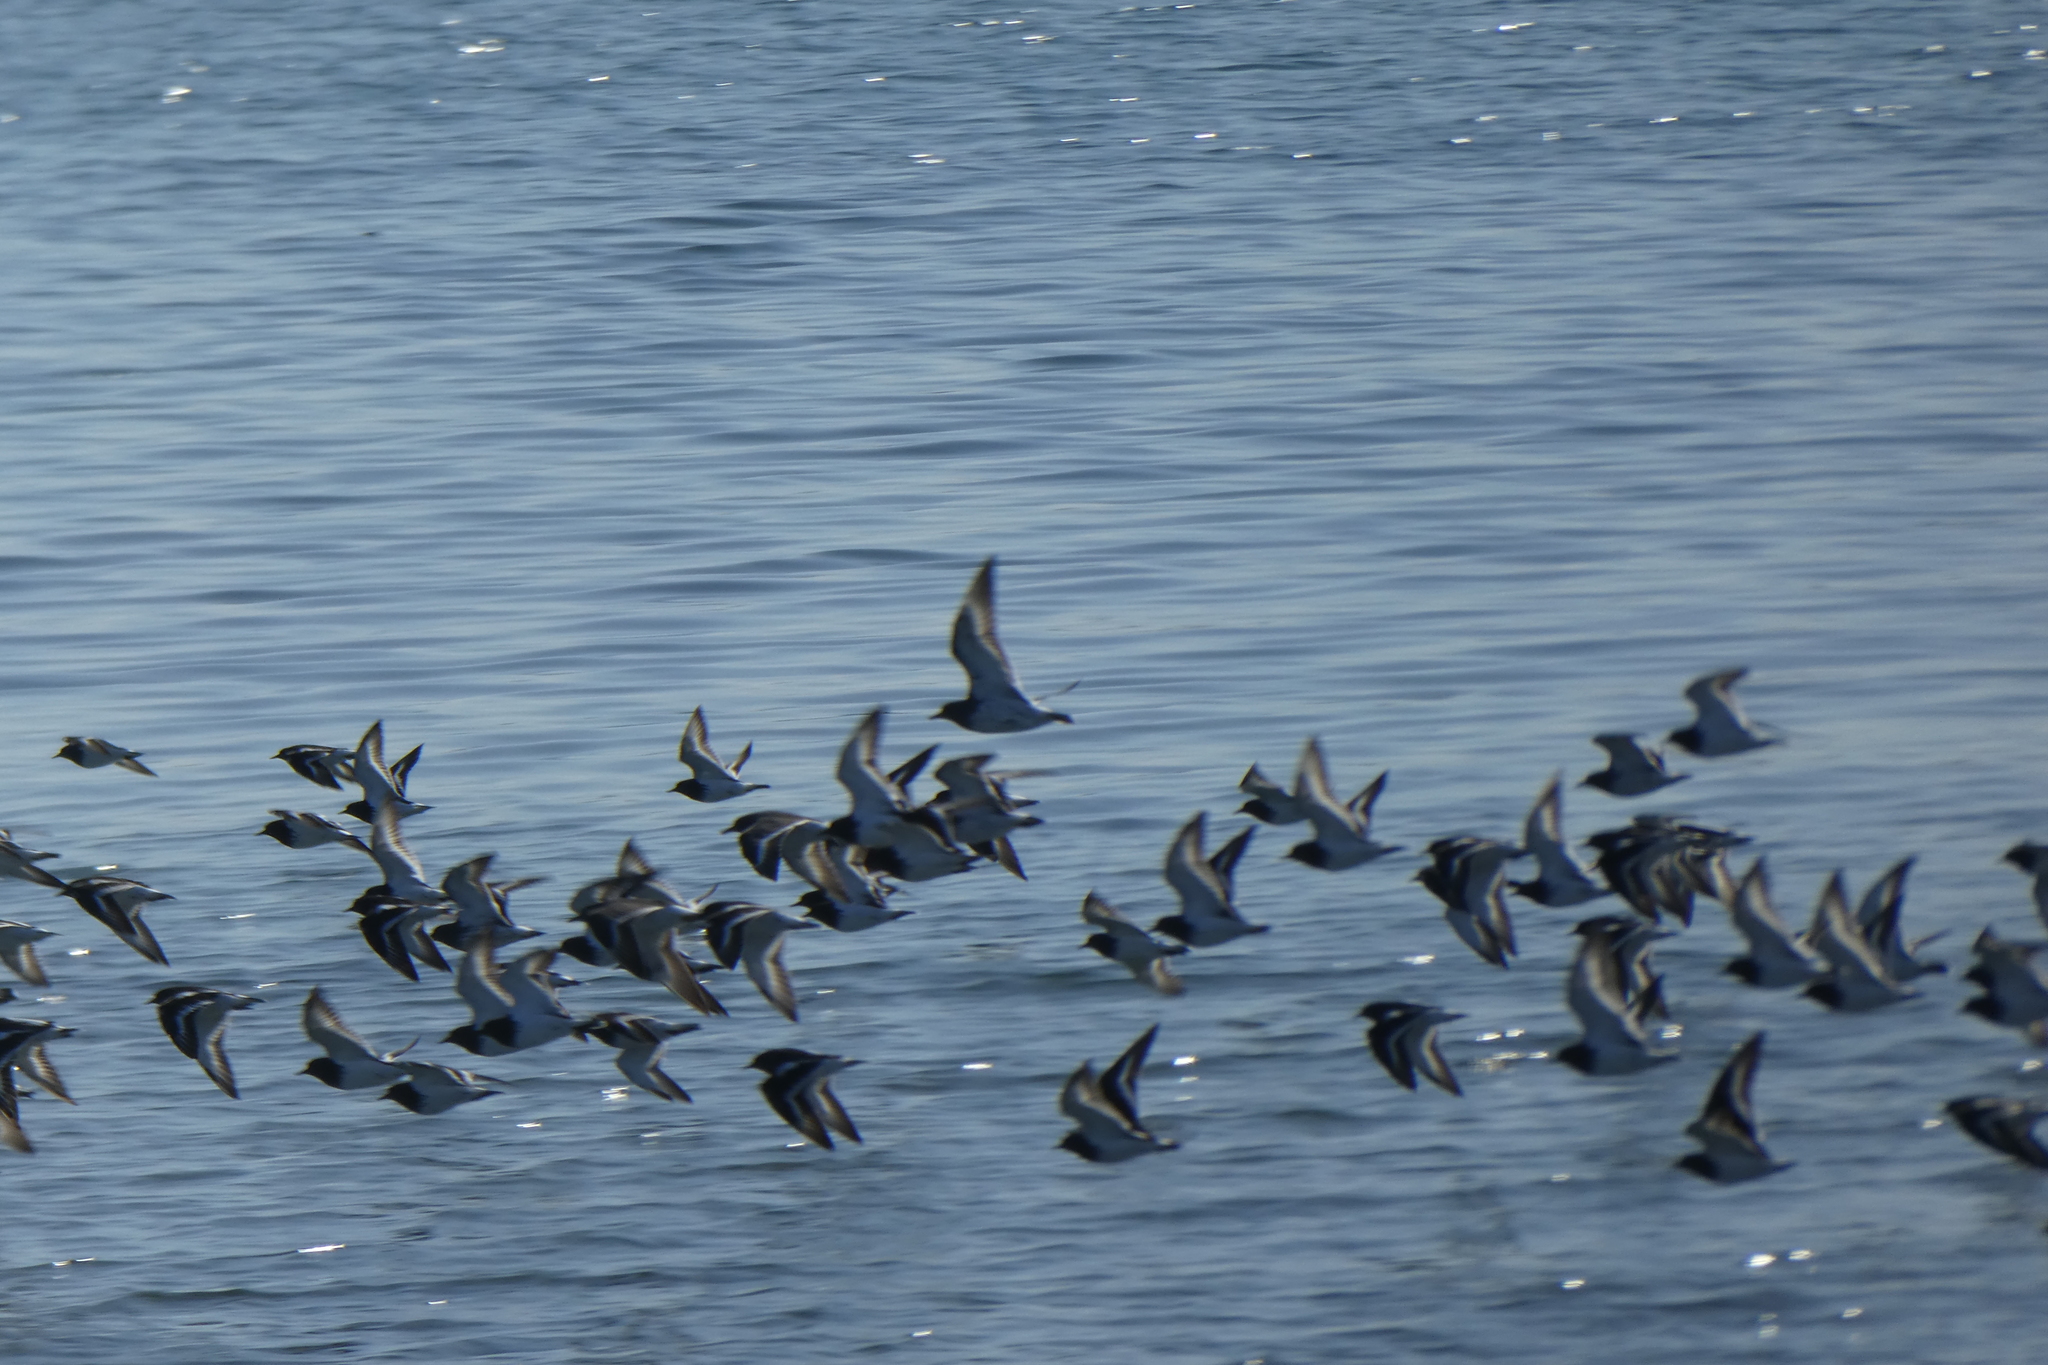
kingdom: Animalia
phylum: Chordata
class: Aves
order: Charadriiformes
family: Scolopacidae
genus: Arenaria
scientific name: Arenaria melanocephala
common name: Black turnstone
